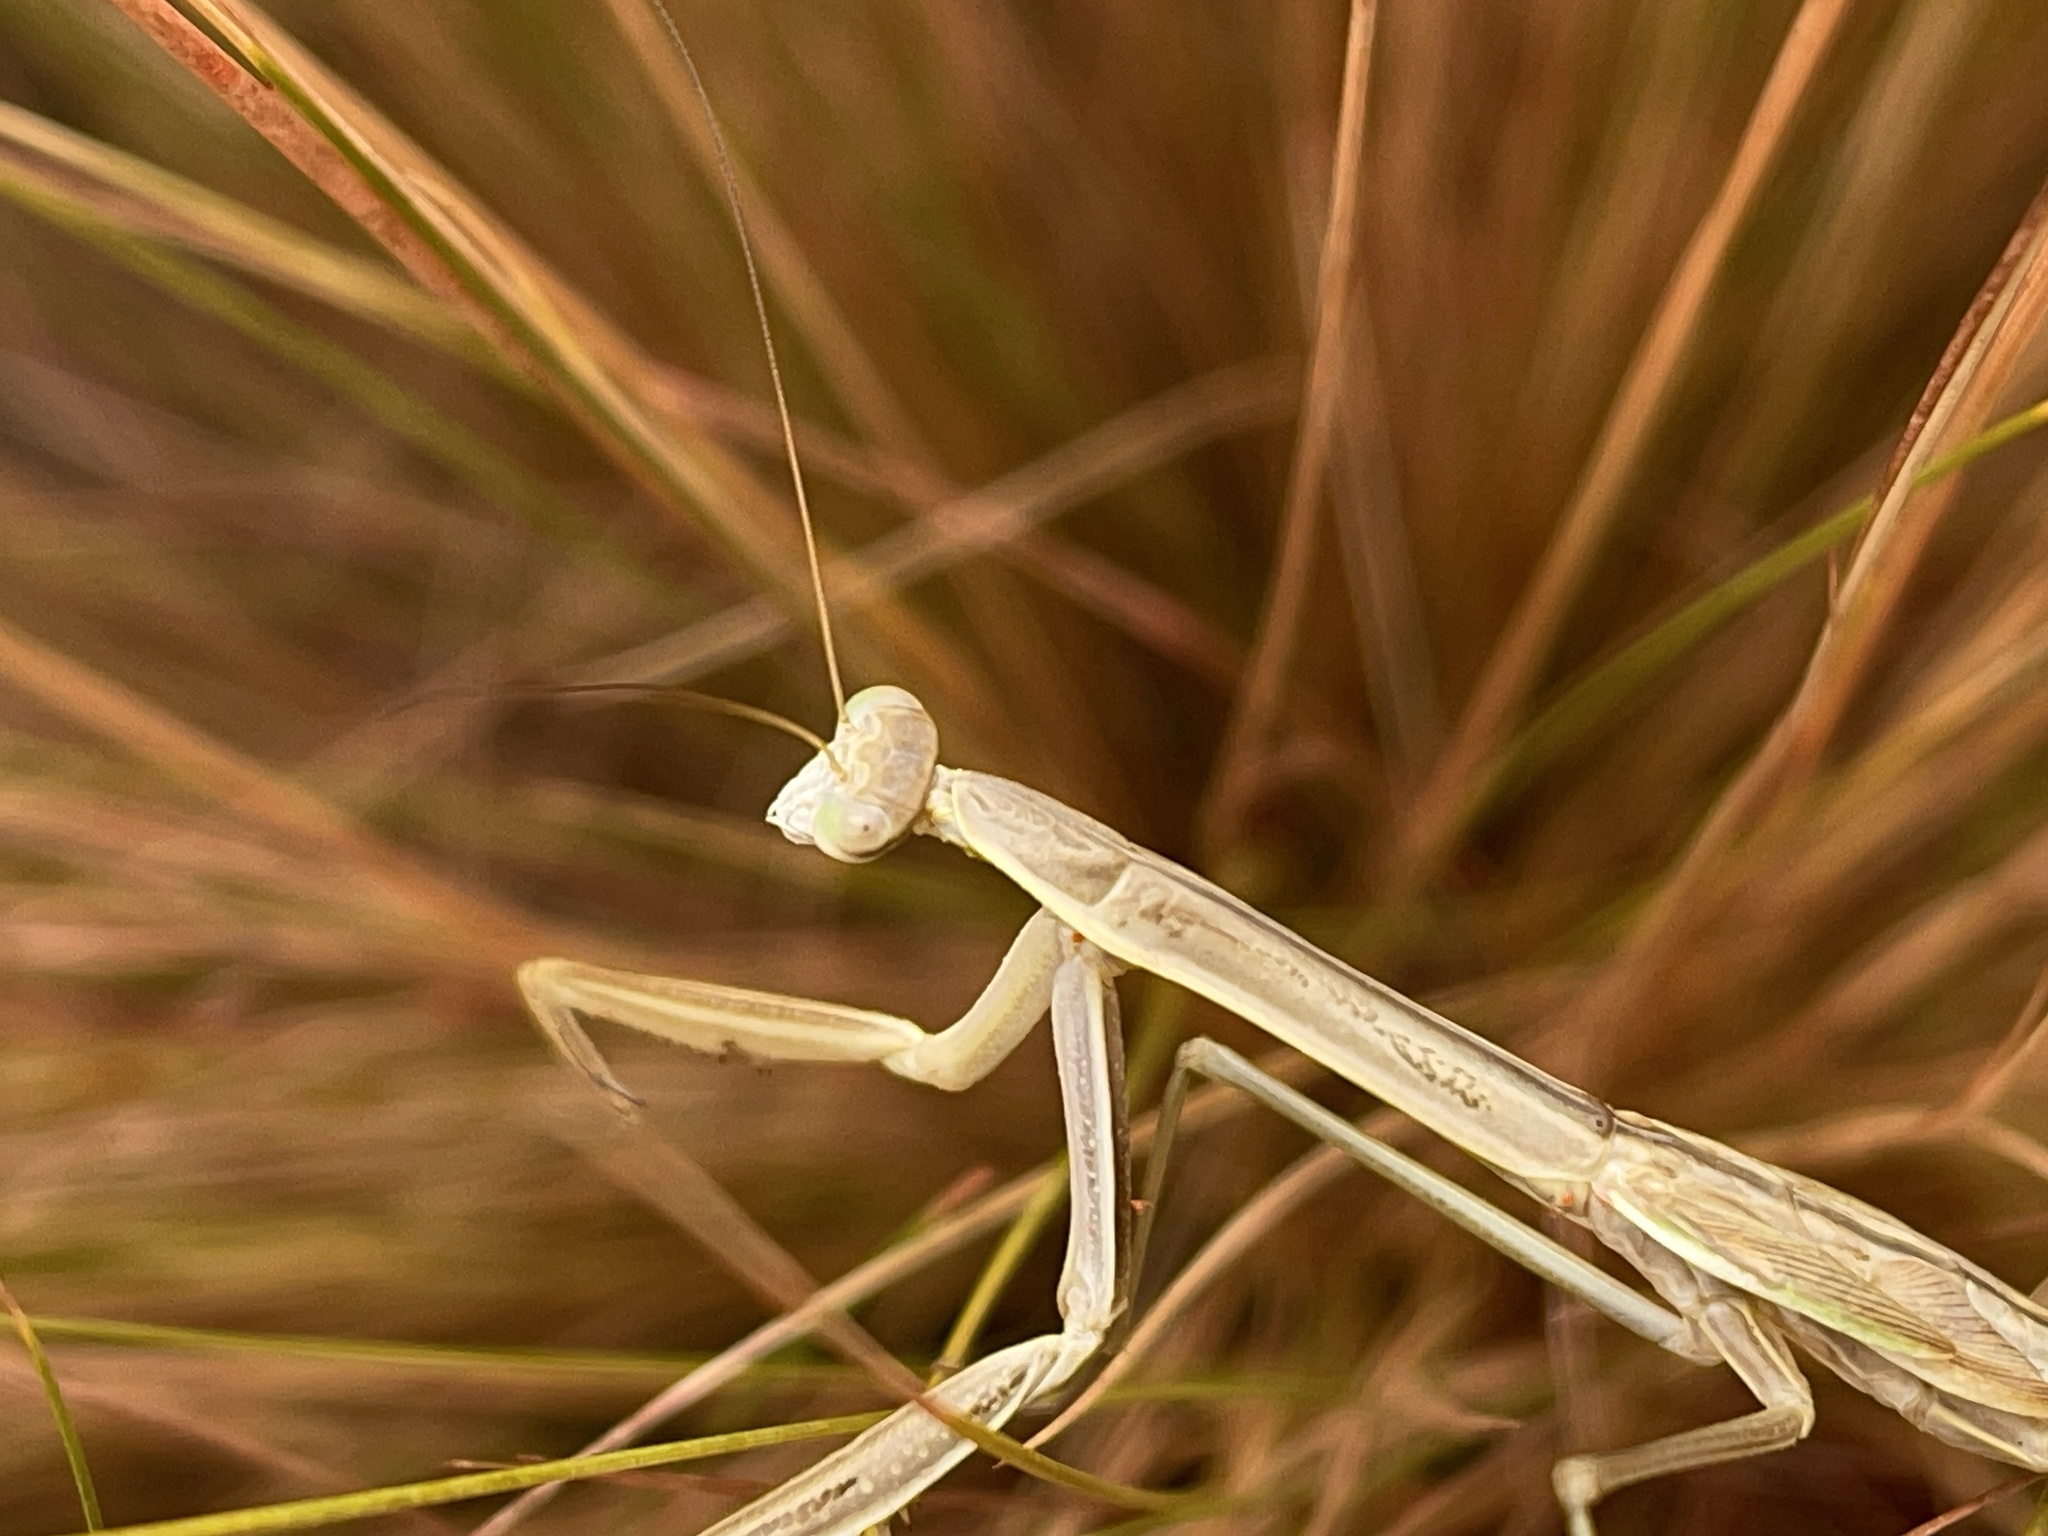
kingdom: Animalia
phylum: Arthropoda
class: Insecta
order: Mantodea
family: Mantidae
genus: Tenodera
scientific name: Tenodera australasiae
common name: Purple-winged mantis
